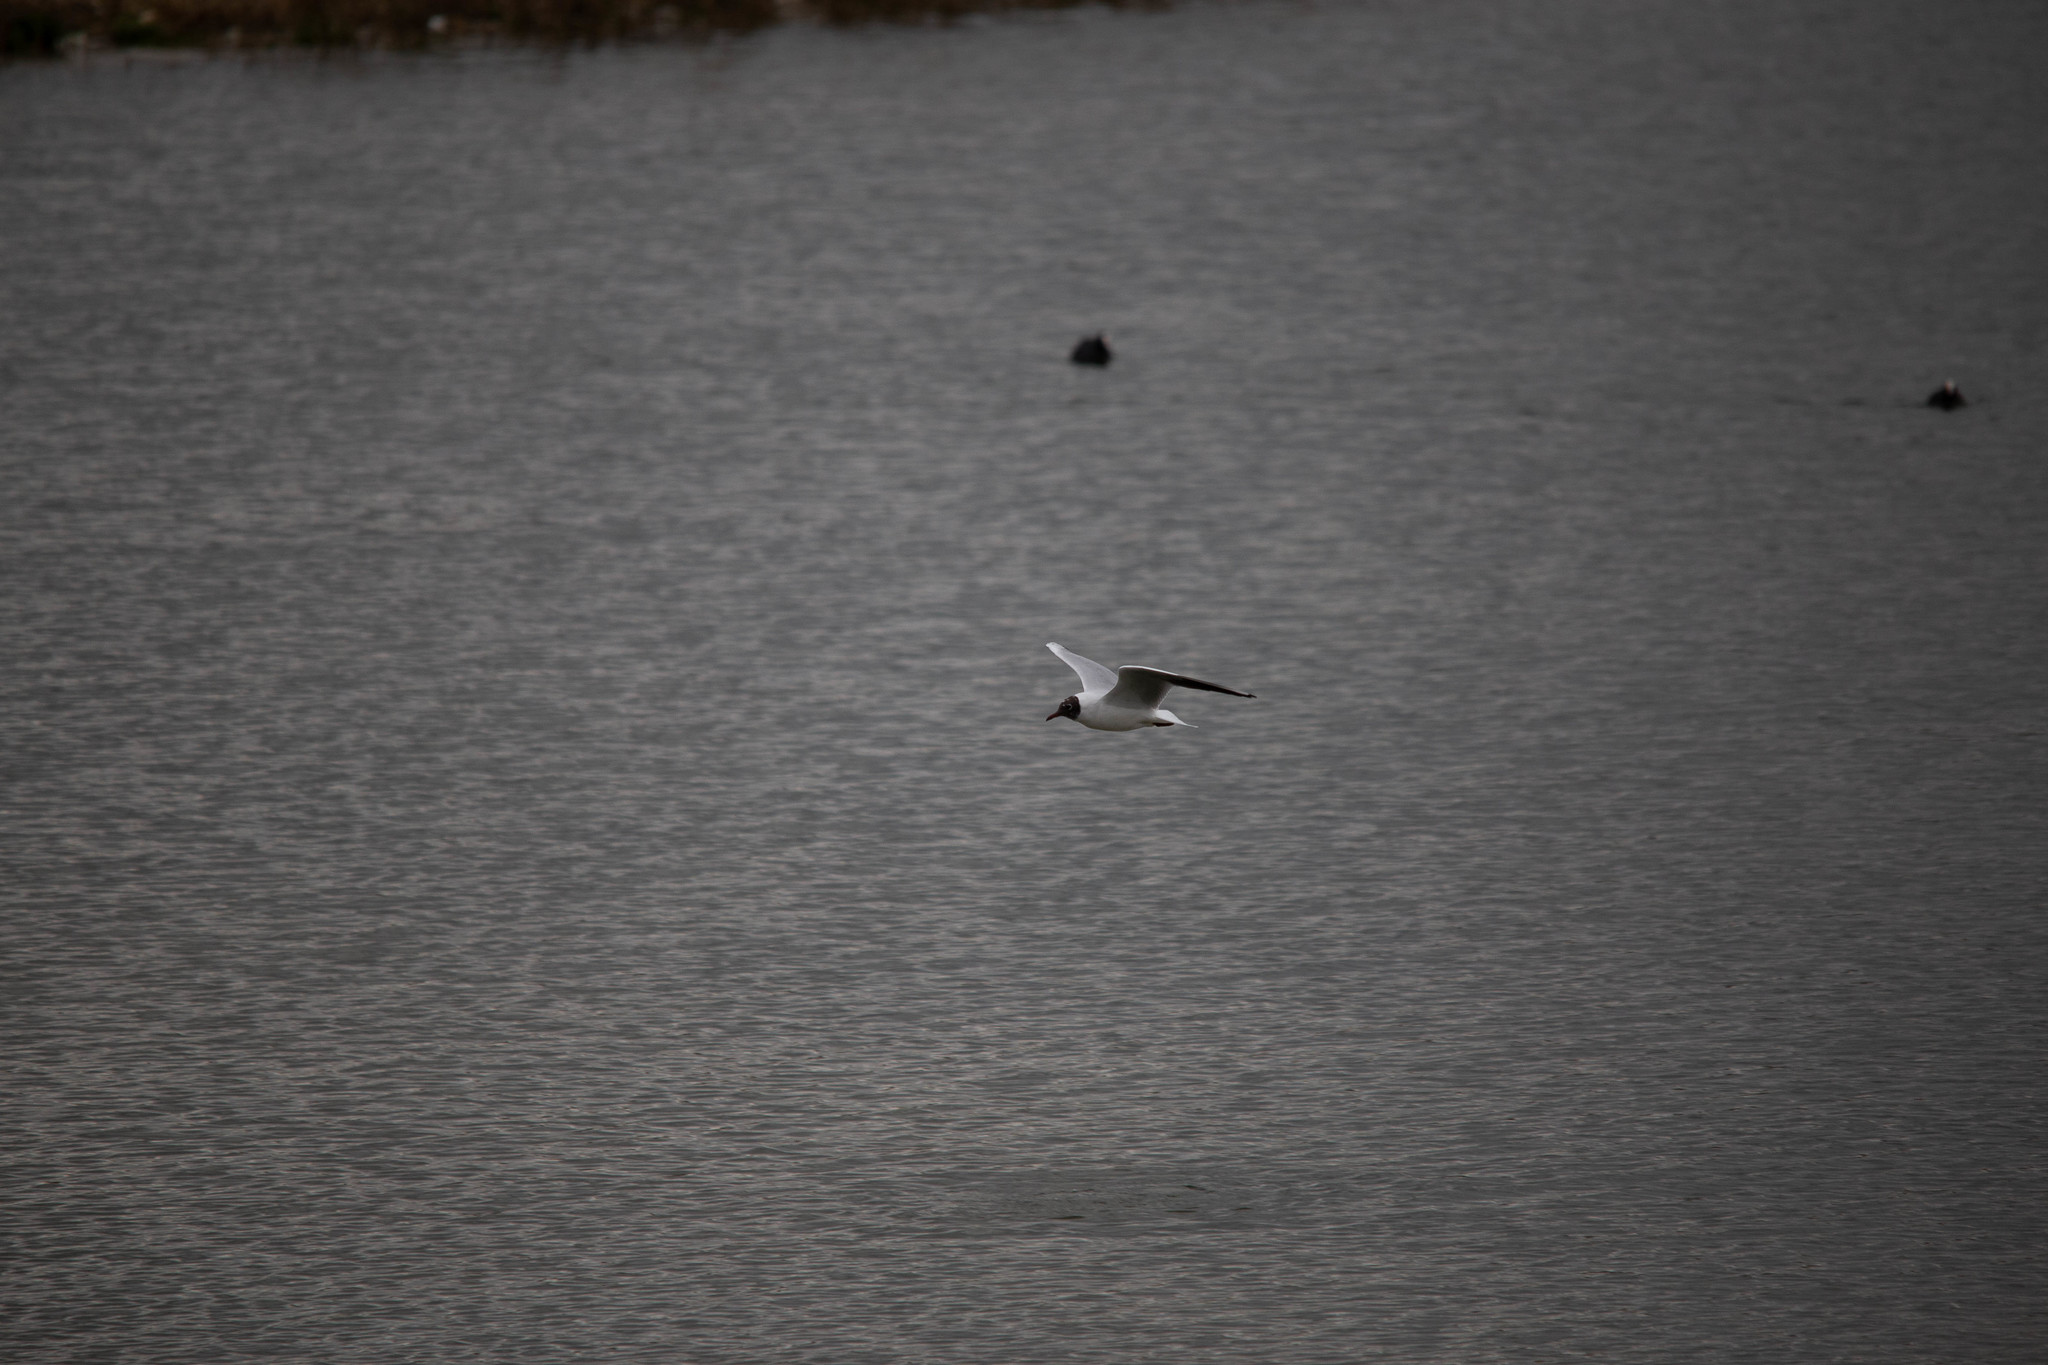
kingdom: Animalia
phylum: Chordata
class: Aves
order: Charadriiformes
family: Laridae
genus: Chroicocephalus
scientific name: Chroicocephalus ridibundus
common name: Black-headed gull
